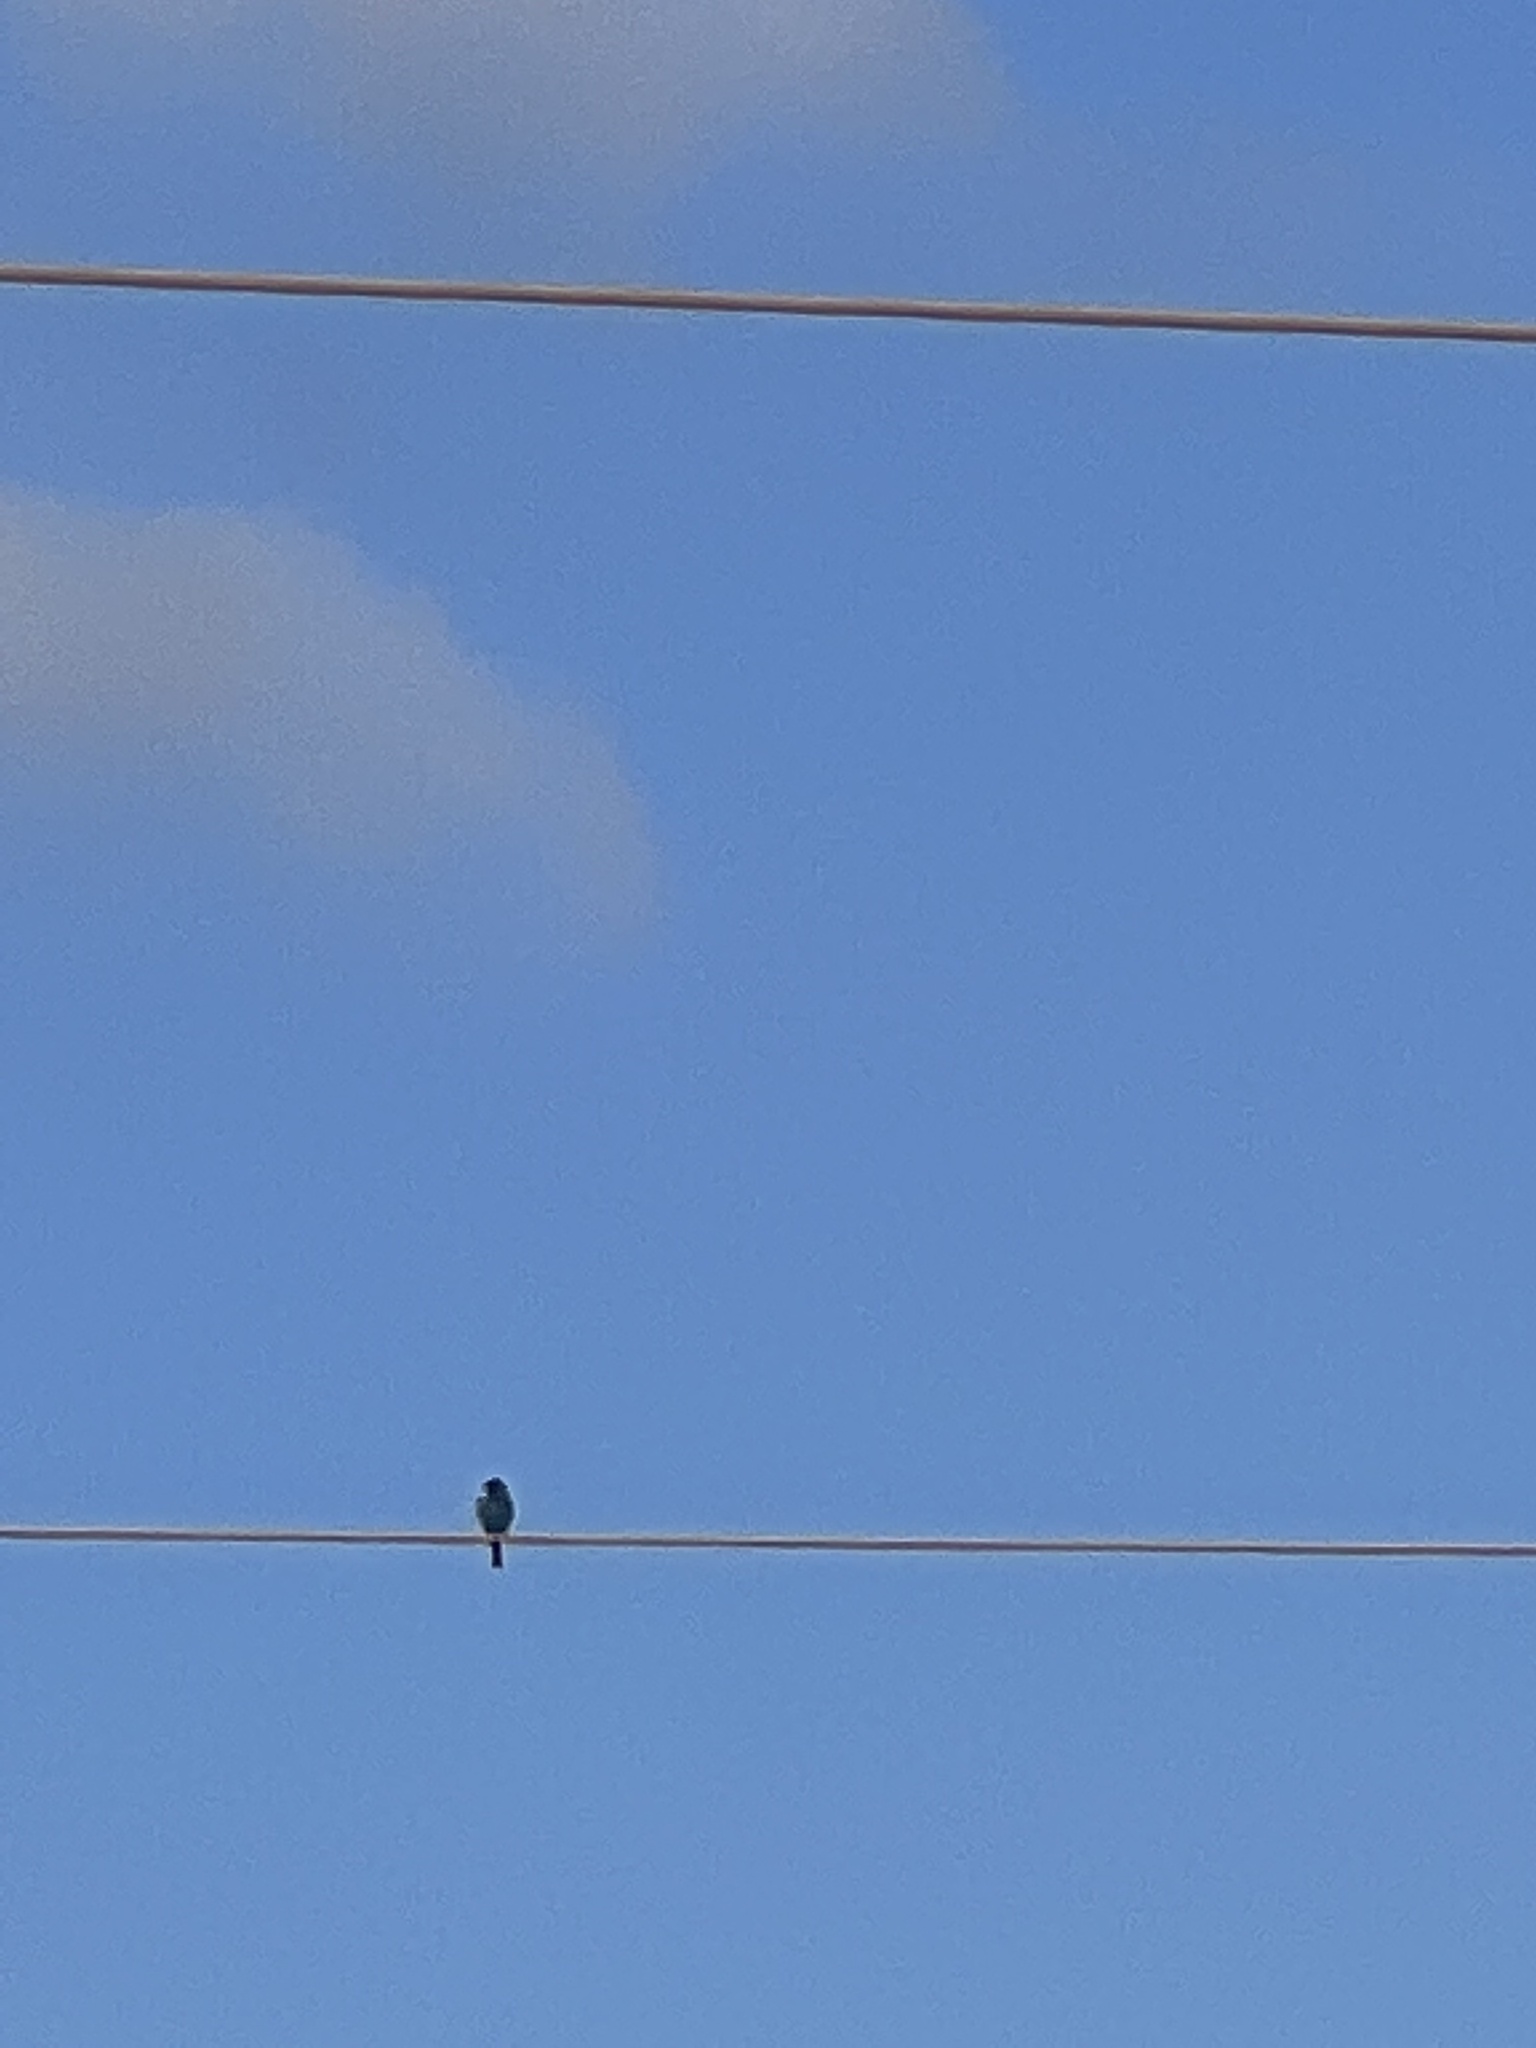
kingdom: Animalia
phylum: Chordata
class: Aves
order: Passeriformes
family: Cardinalidae
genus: Passerina
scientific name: Passerina cyanea
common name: Indigo bunting
